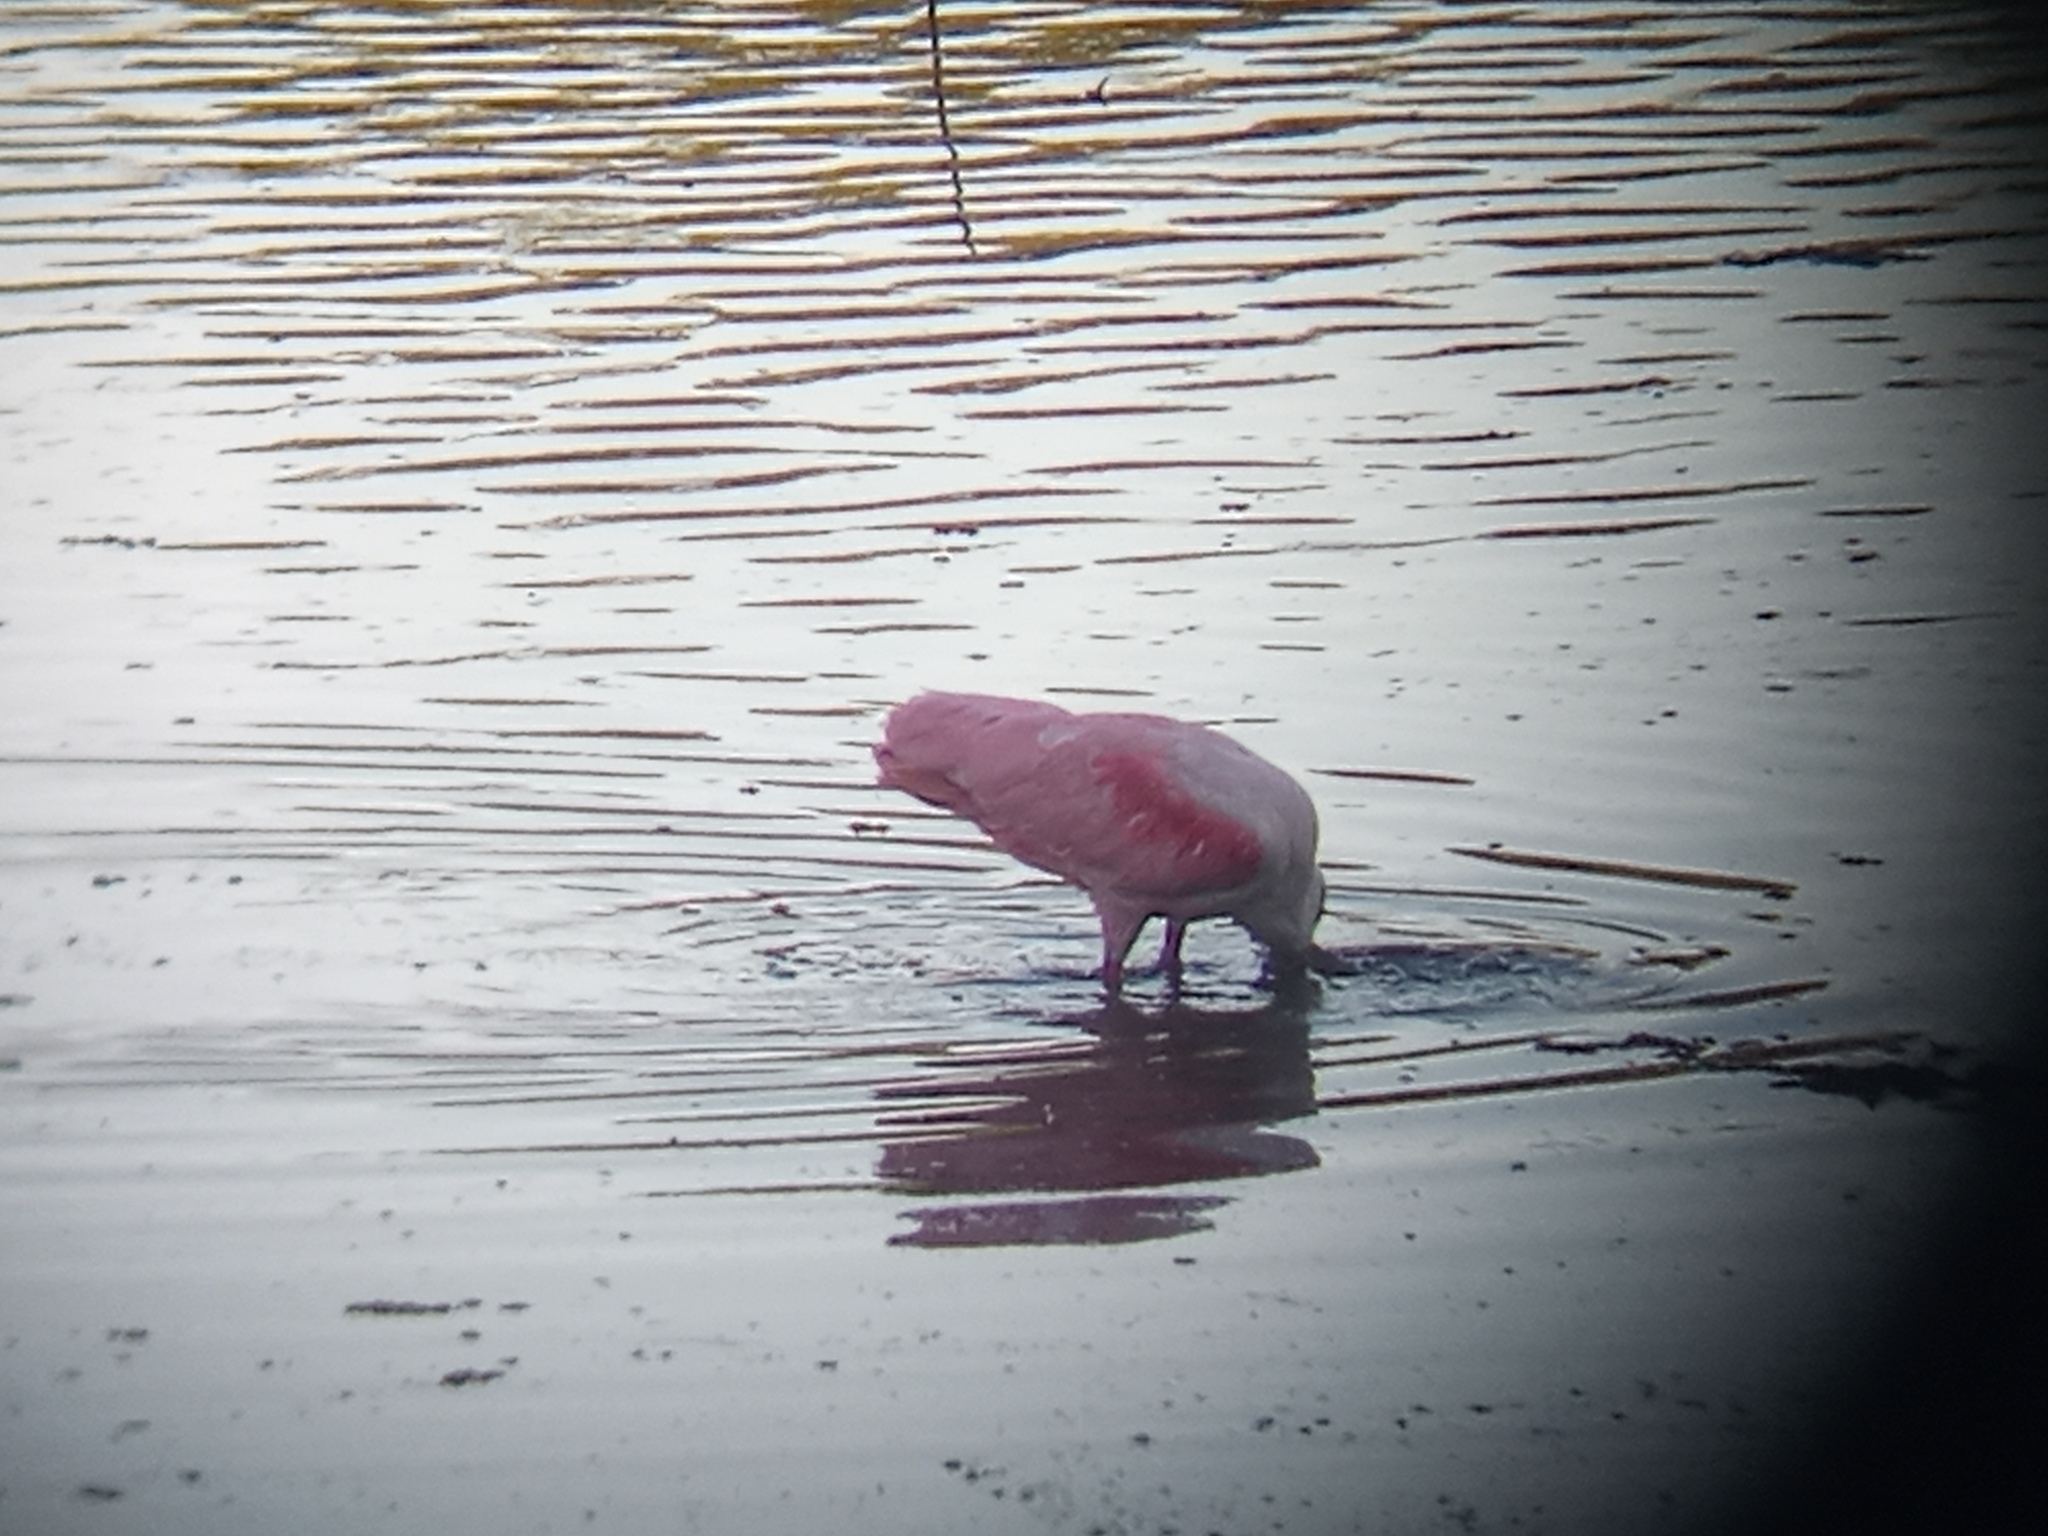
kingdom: Animalia
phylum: Chordata
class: Aves
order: Pelecaniformes
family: Threskiornithidae
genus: Platalea
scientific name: Platalea ajaja
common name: Roseate spoonbill
